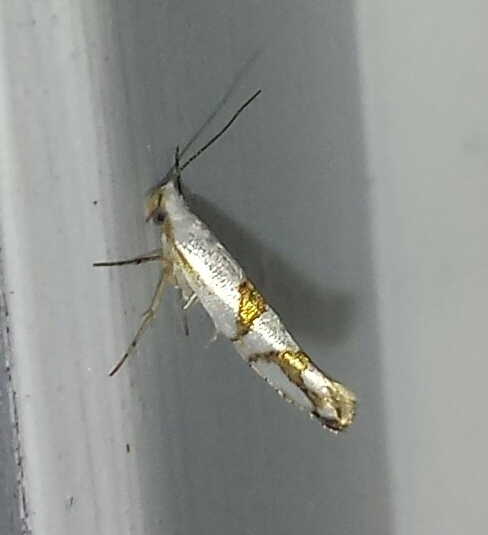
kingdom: Animalia
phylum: Arthropoda
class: Insecta
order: Lepidoptera
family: Argyresthiidae
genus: Argyresthia
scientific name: Argyresthia oreasella
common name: Cherry shoot borer moth
